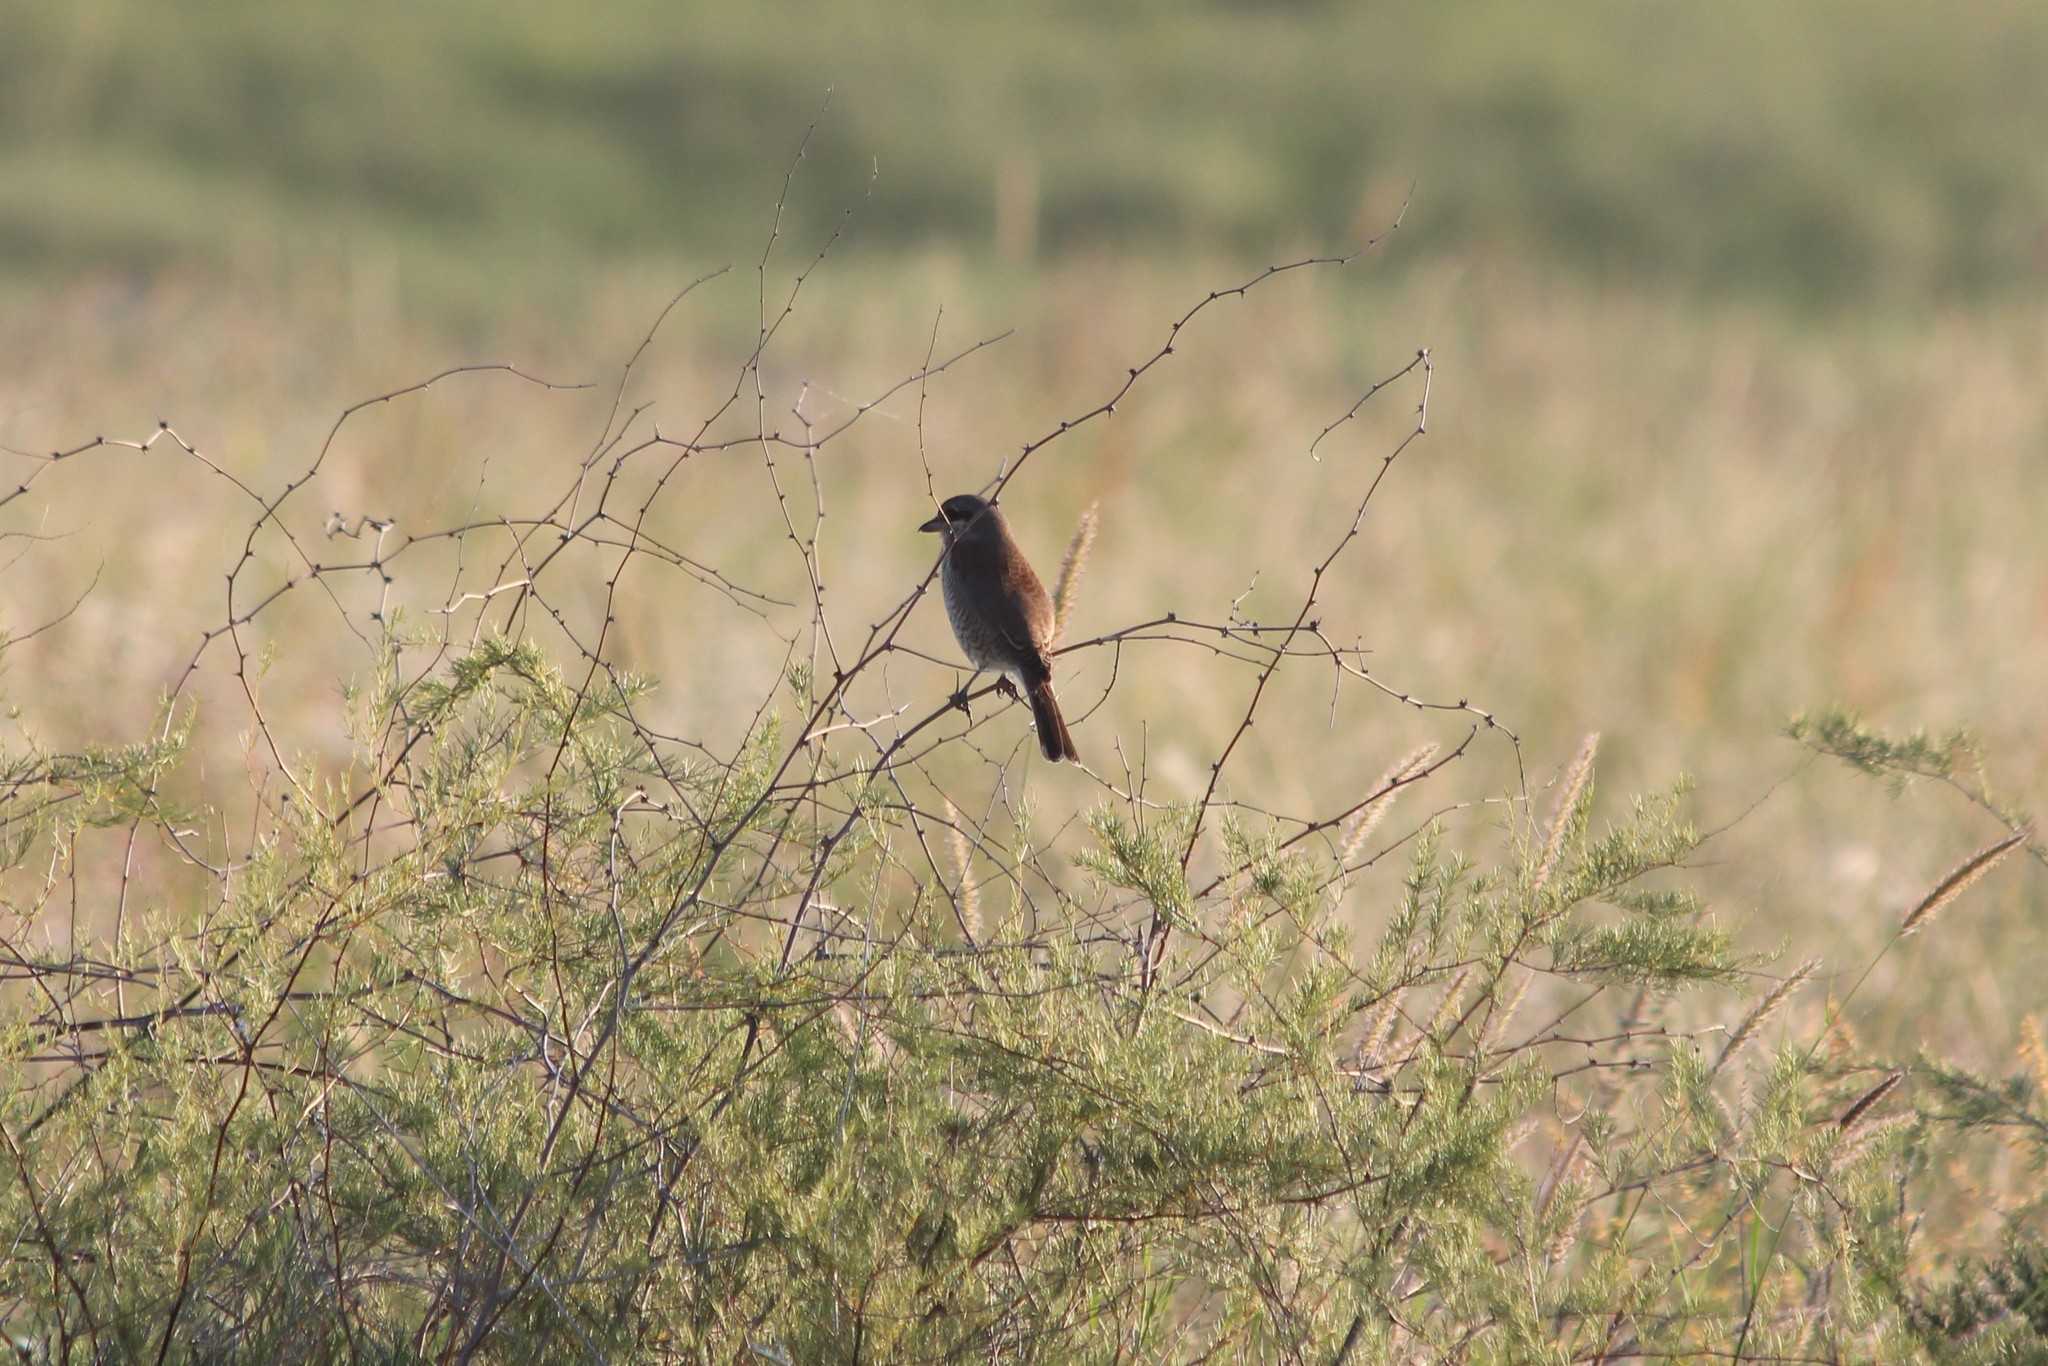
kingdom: Animalia
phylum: Chordata
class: Aves
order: Passeriformes
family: Laniidae
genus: Lanius
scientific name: Lanius collurio
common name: Red-backed shrike
